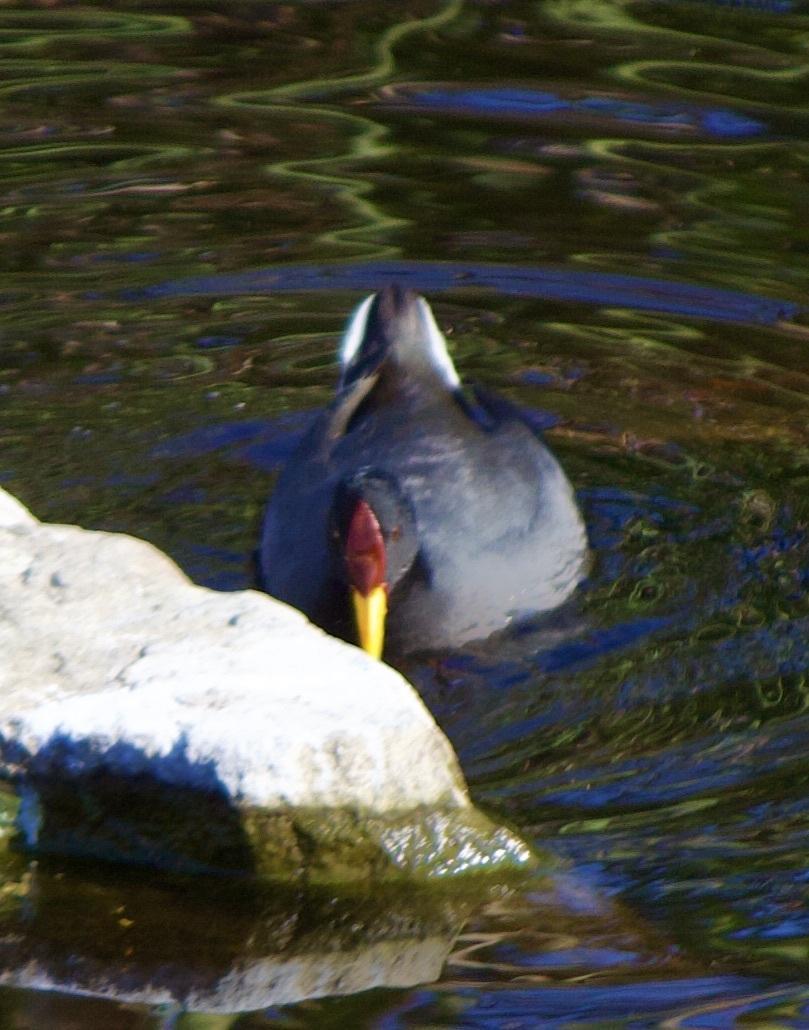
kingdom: Animalia
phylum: Chordata
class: Aves
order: Gruiformes
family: Rallidae
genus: Fulica
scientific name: Fulica rufifrons
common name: Red-fronted coot
